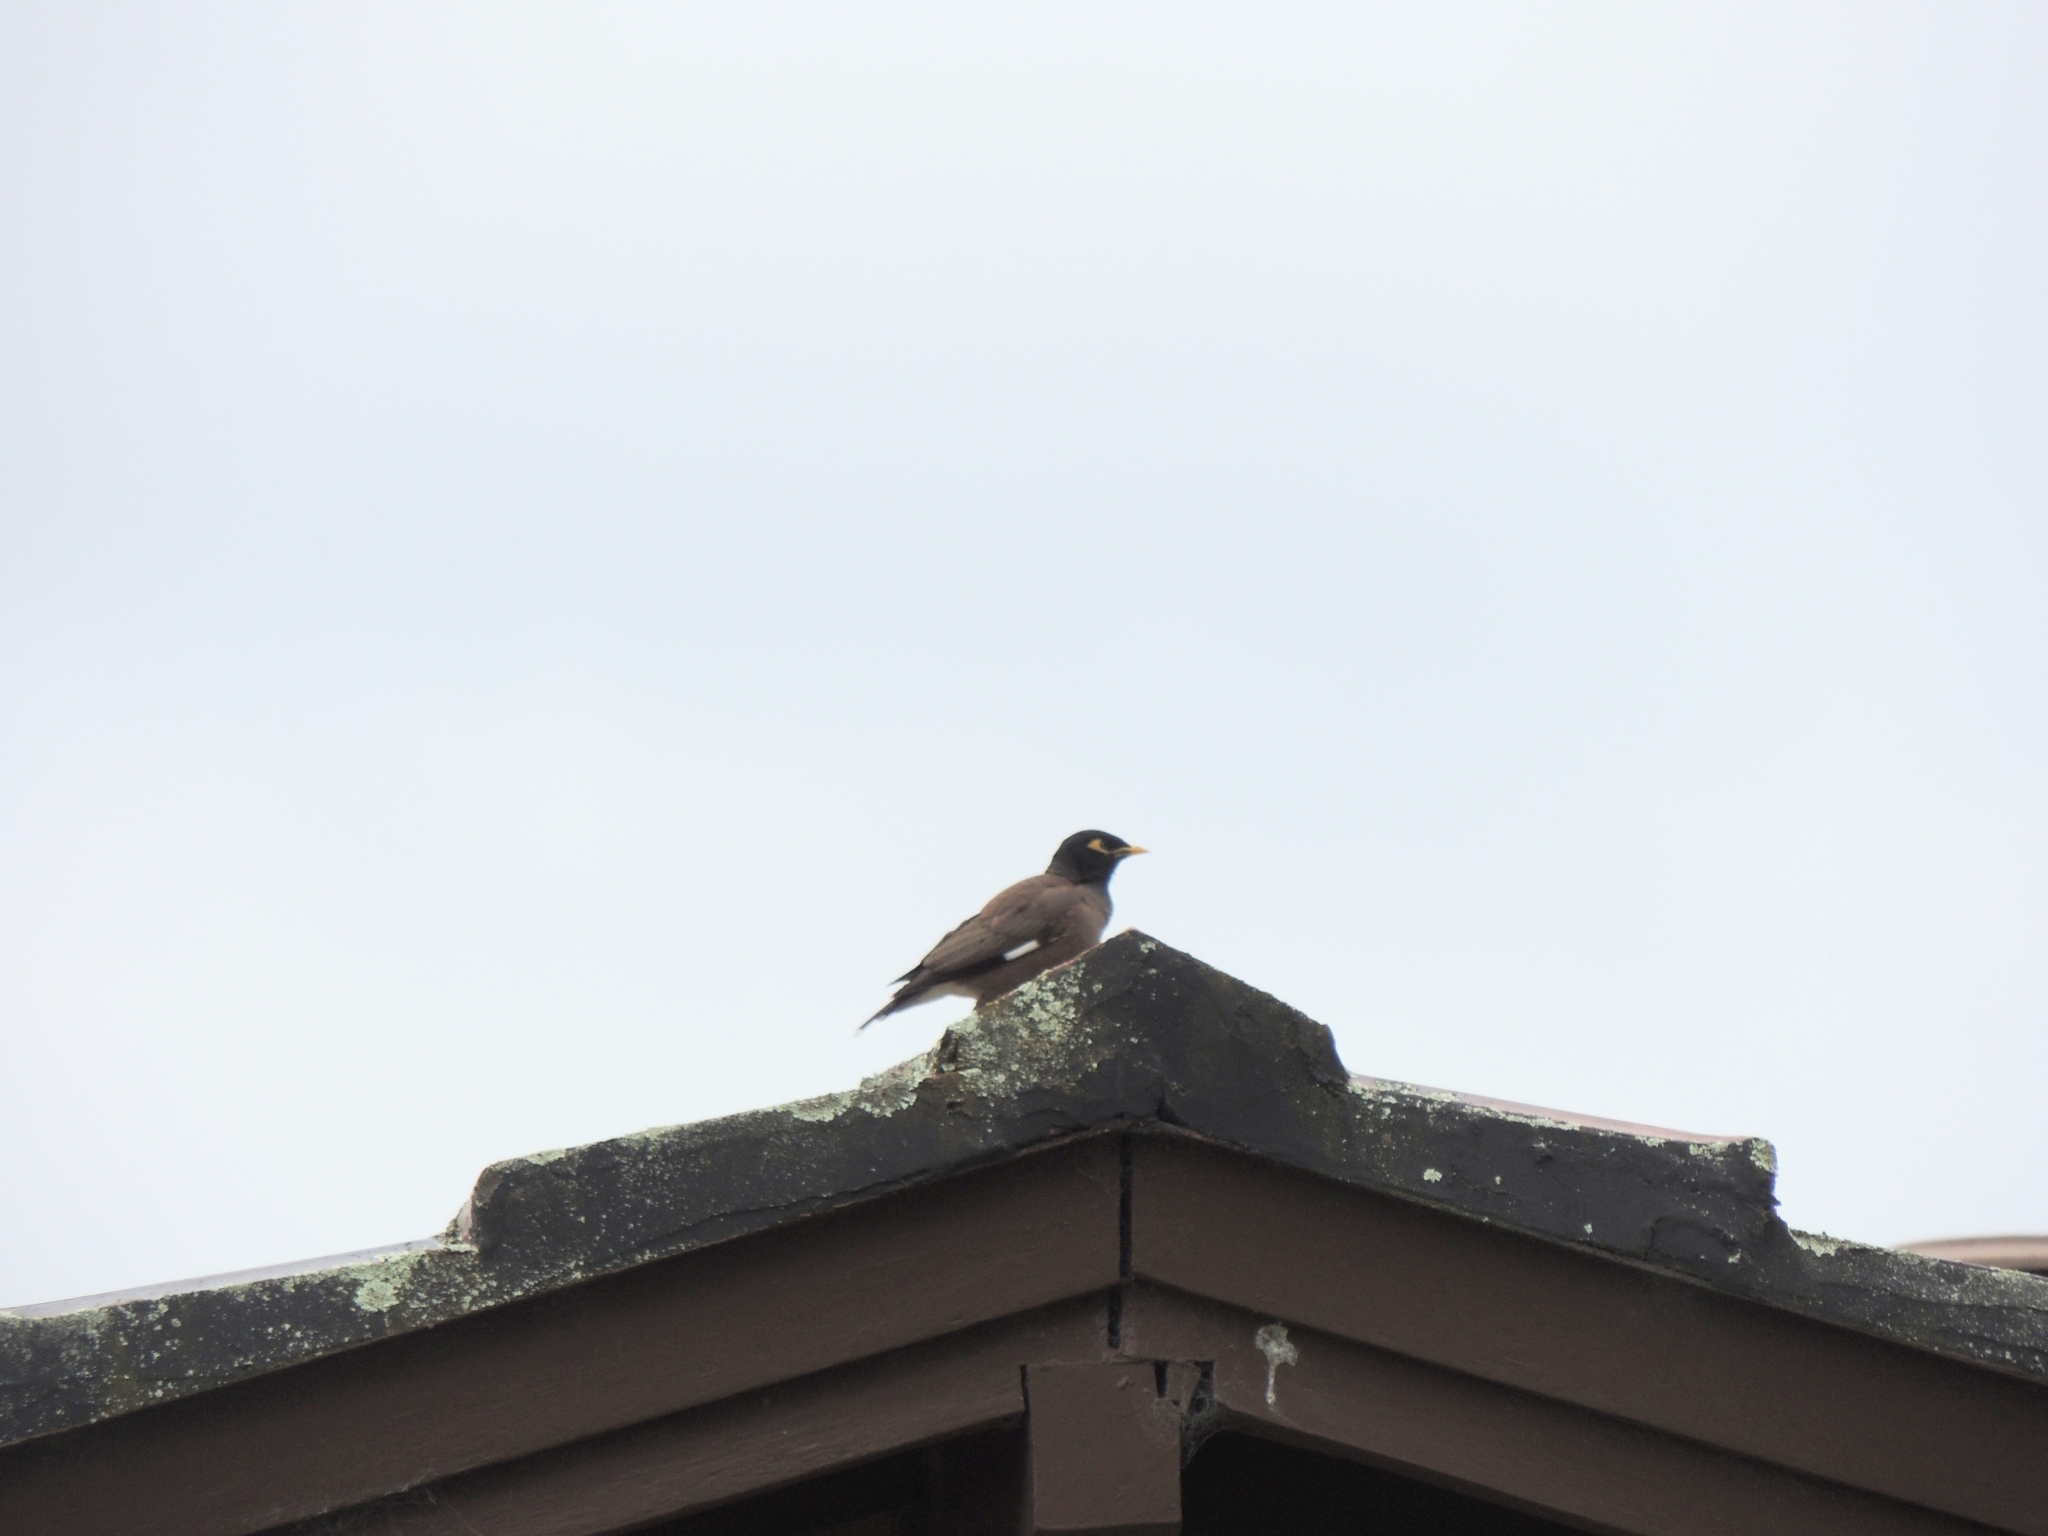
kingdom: Animalia
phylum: Chordata
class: Aves
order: Passeriformes
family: Sturnidae
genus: Acridotheres
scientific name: Acridotheres tristis
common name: Common myna
